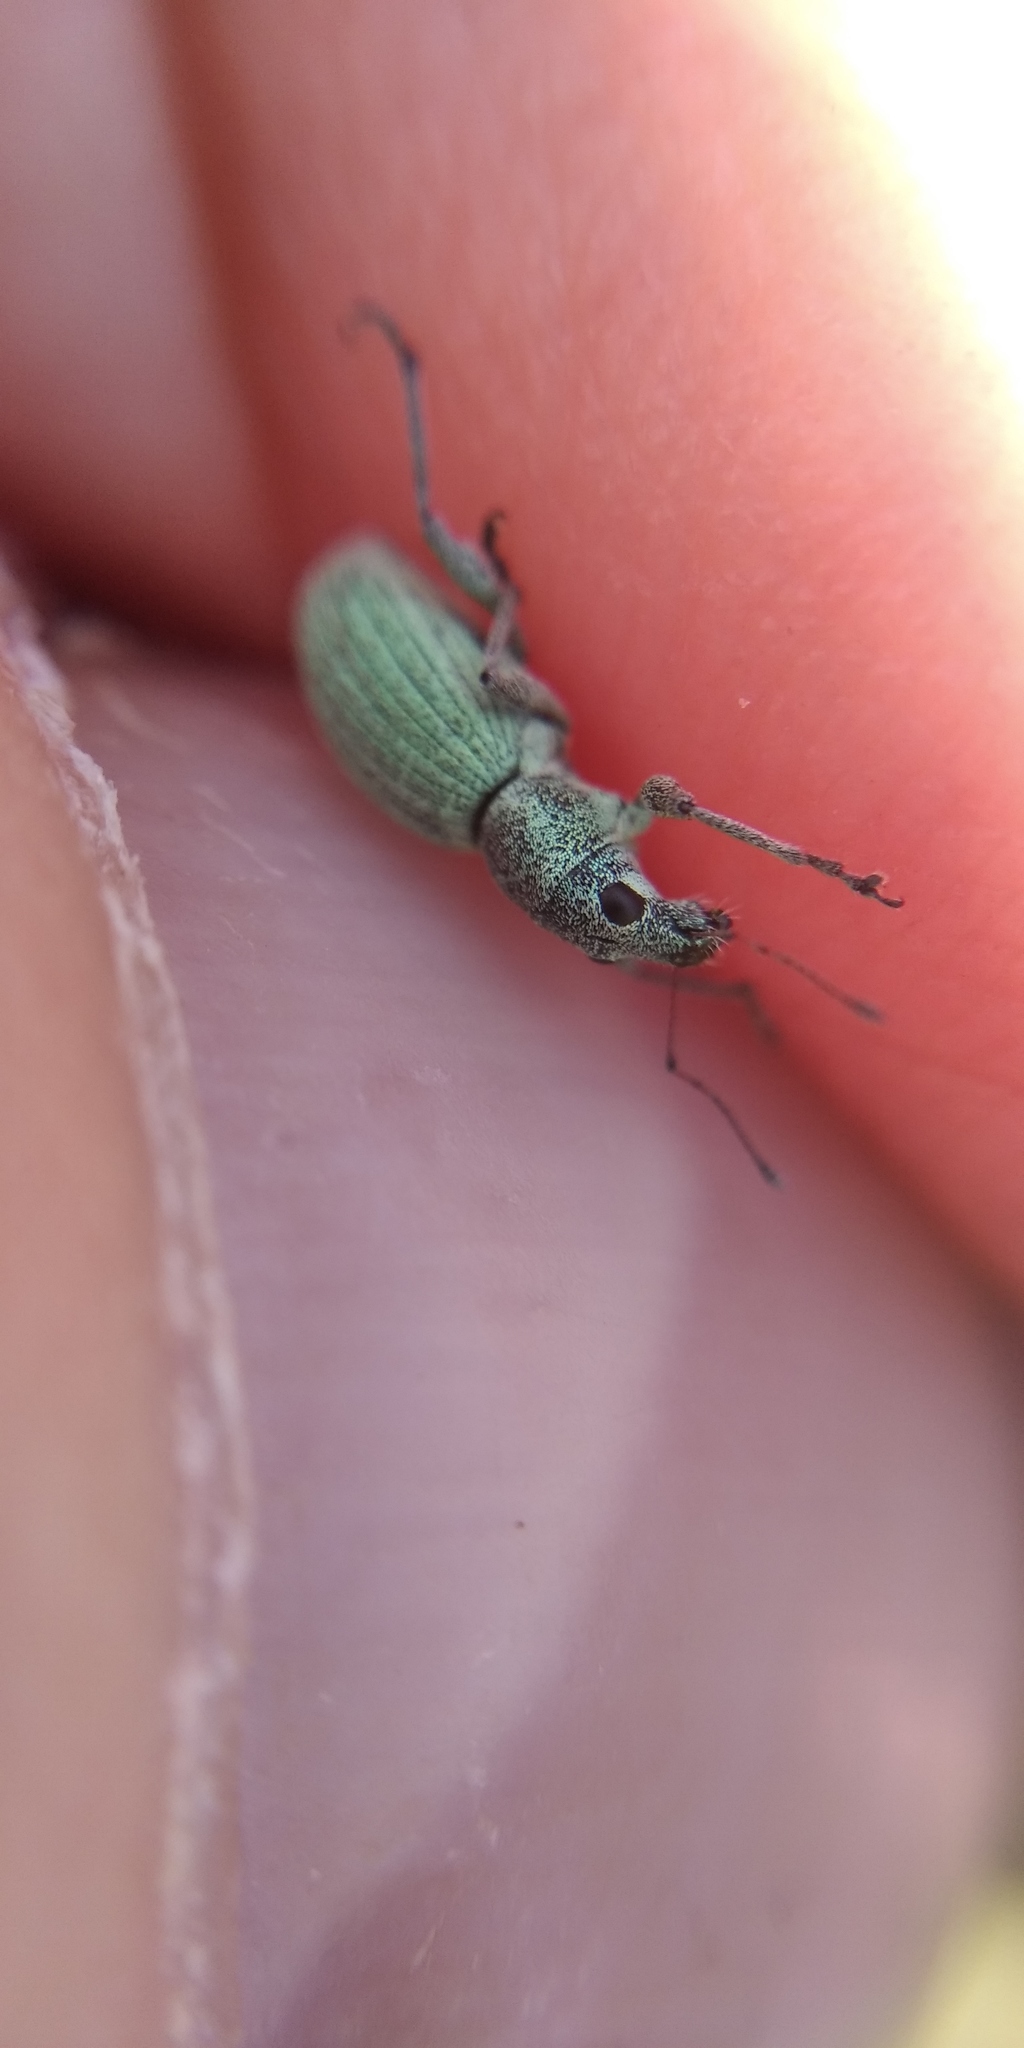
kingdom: Animalia
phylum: Arthropoda
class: Insecta
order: Coleoptera
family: Curculionidae
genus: Eusomus
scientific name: Eusomus ovulum
